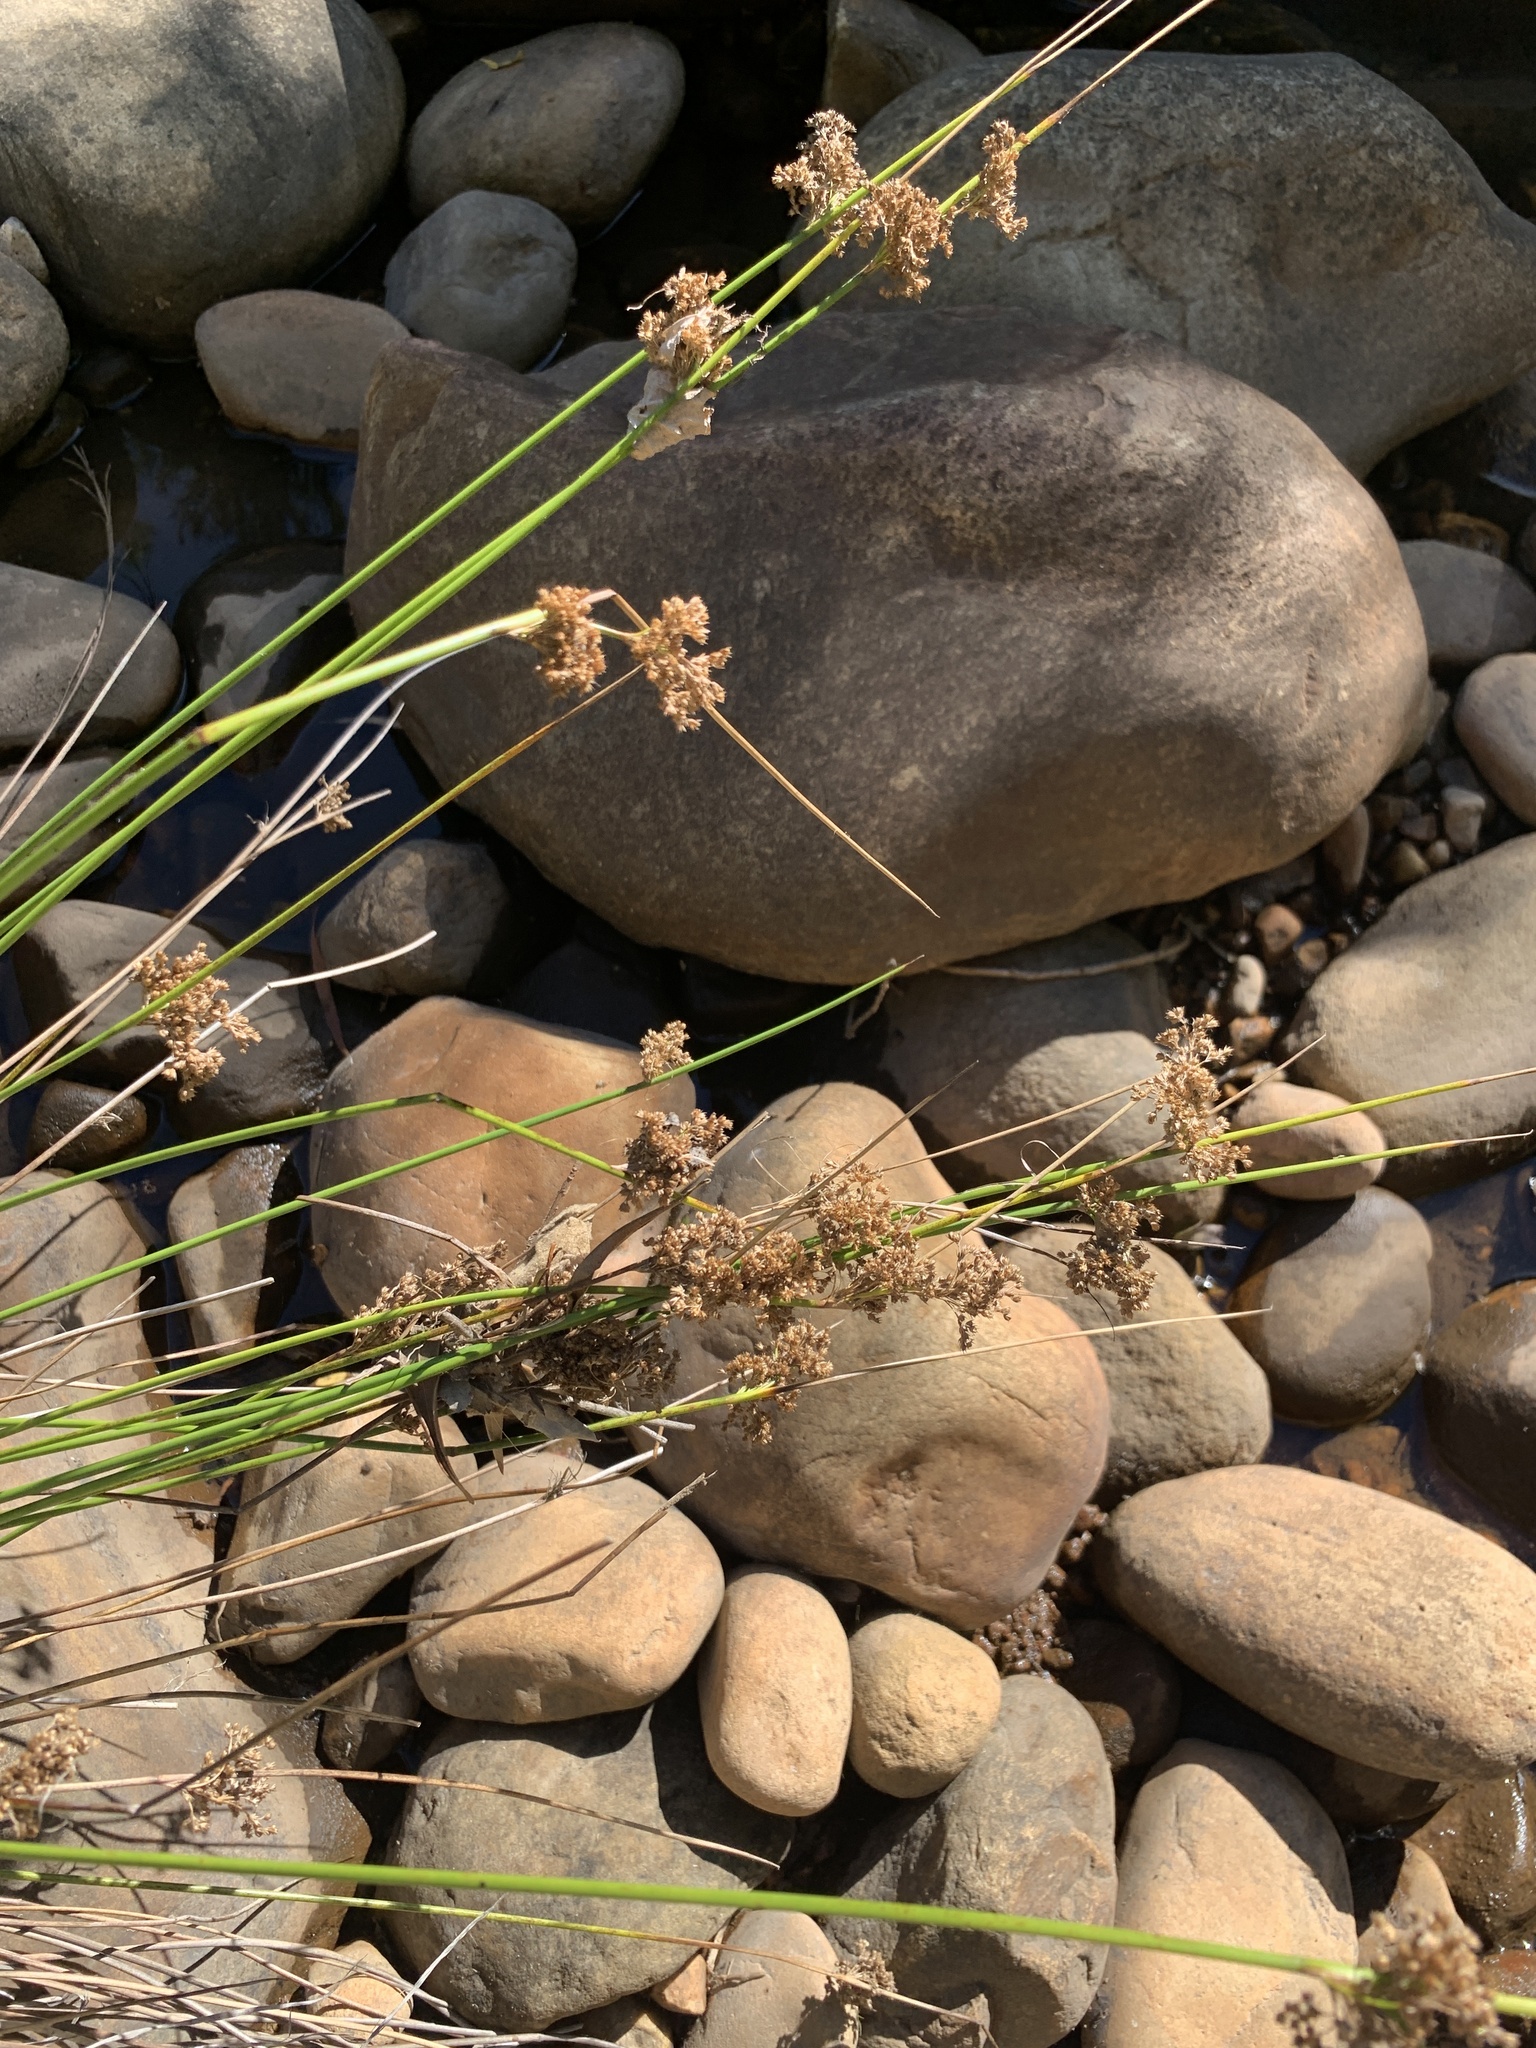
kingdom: Plantae
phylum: Tracheophyta
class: Liliopsida
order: Poales
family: Juncaceae
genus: Juncus
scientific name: Juncus effusus
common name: Soft rush
